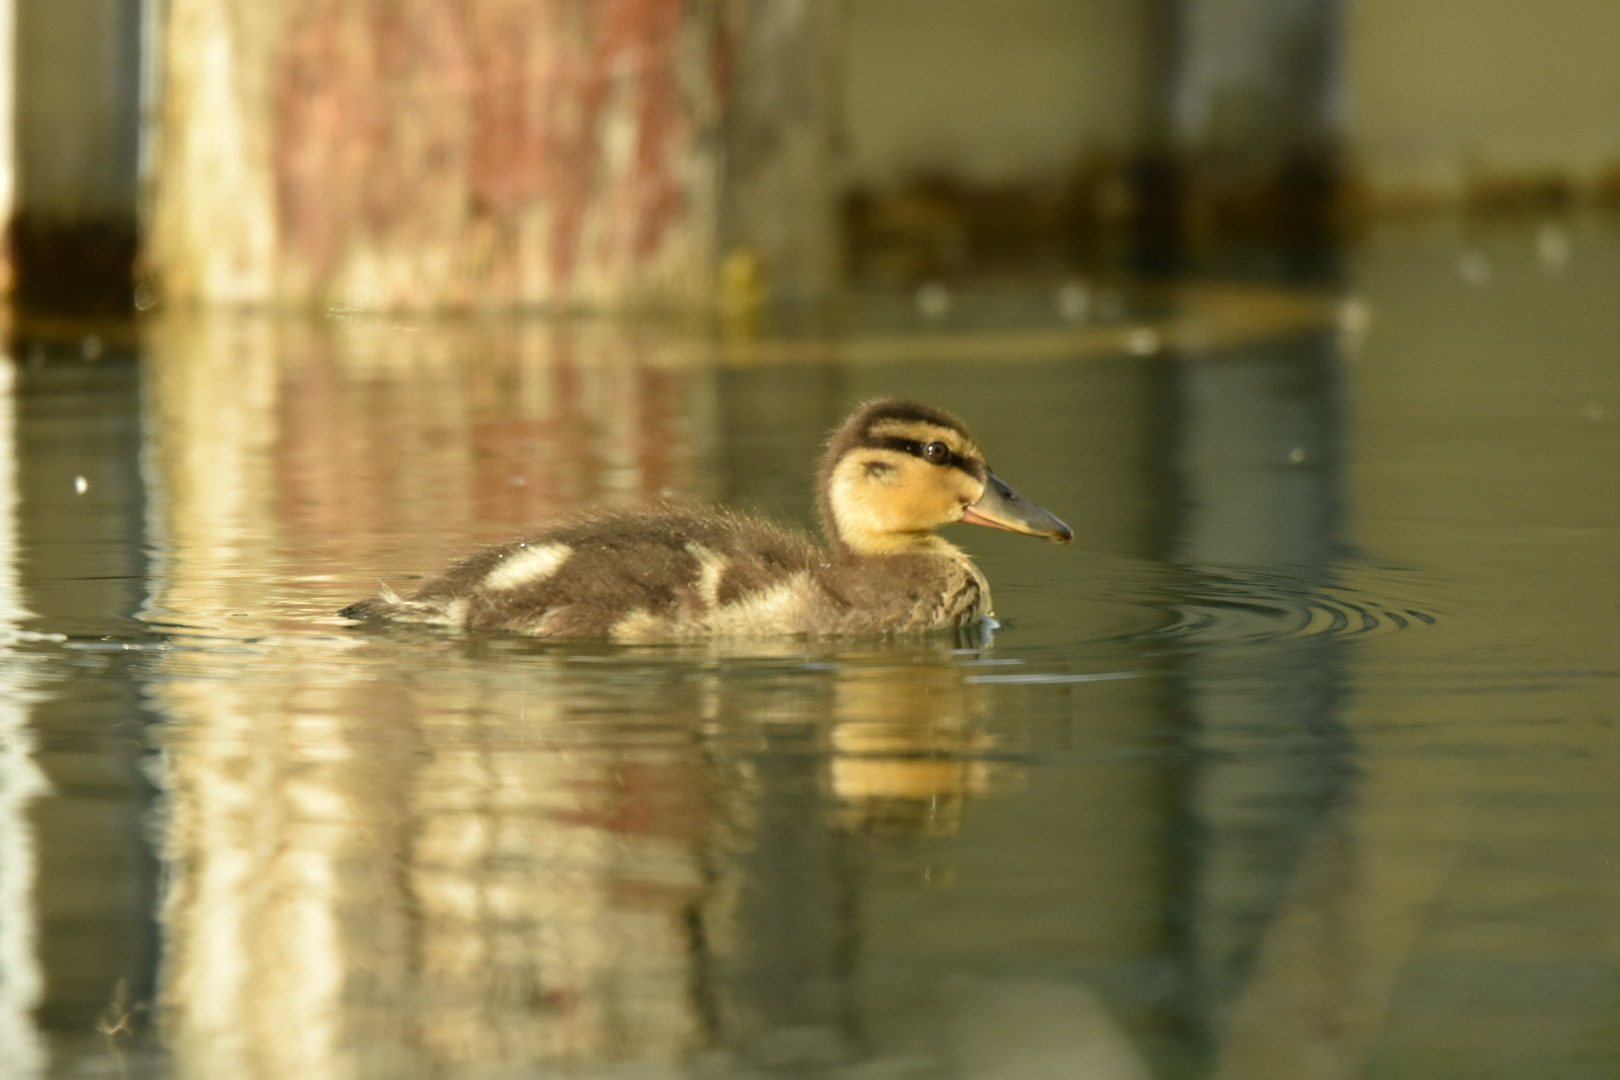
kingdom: Animalia
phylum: Chordata
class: Aves
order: Anseriformes
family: Anatidae
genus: Anas
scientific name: Anas platyrhynchos
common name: Mallard
